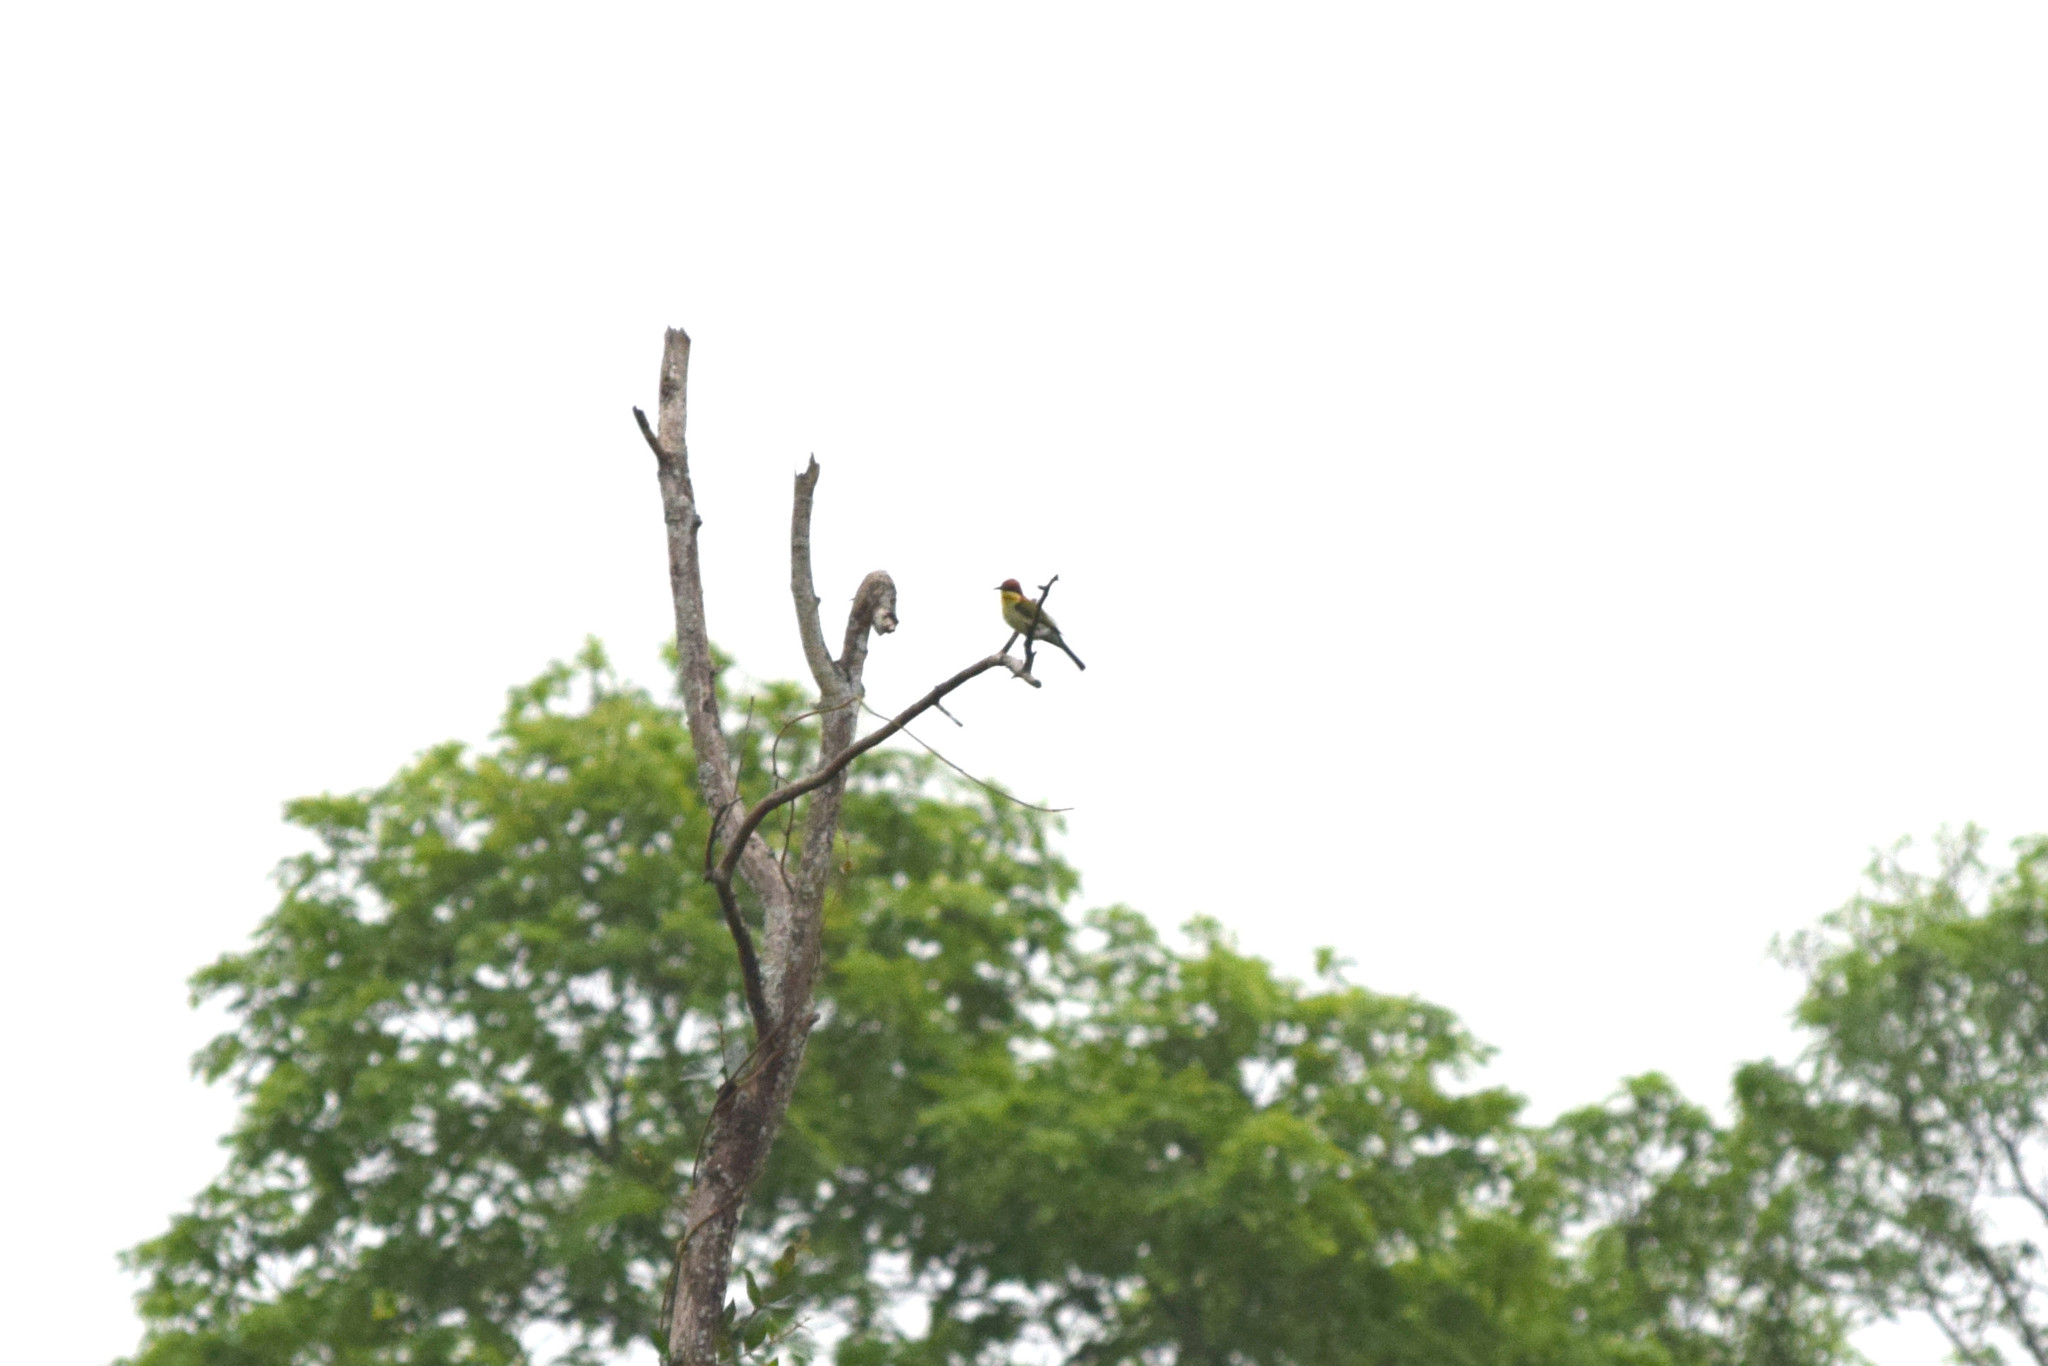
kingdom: Animalia
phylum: Chordata
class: Aves
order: Coraciiformes
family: Meropidae
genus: Merops
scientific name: Merops leschenaulti
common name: Chestnut-headed bee-eater
